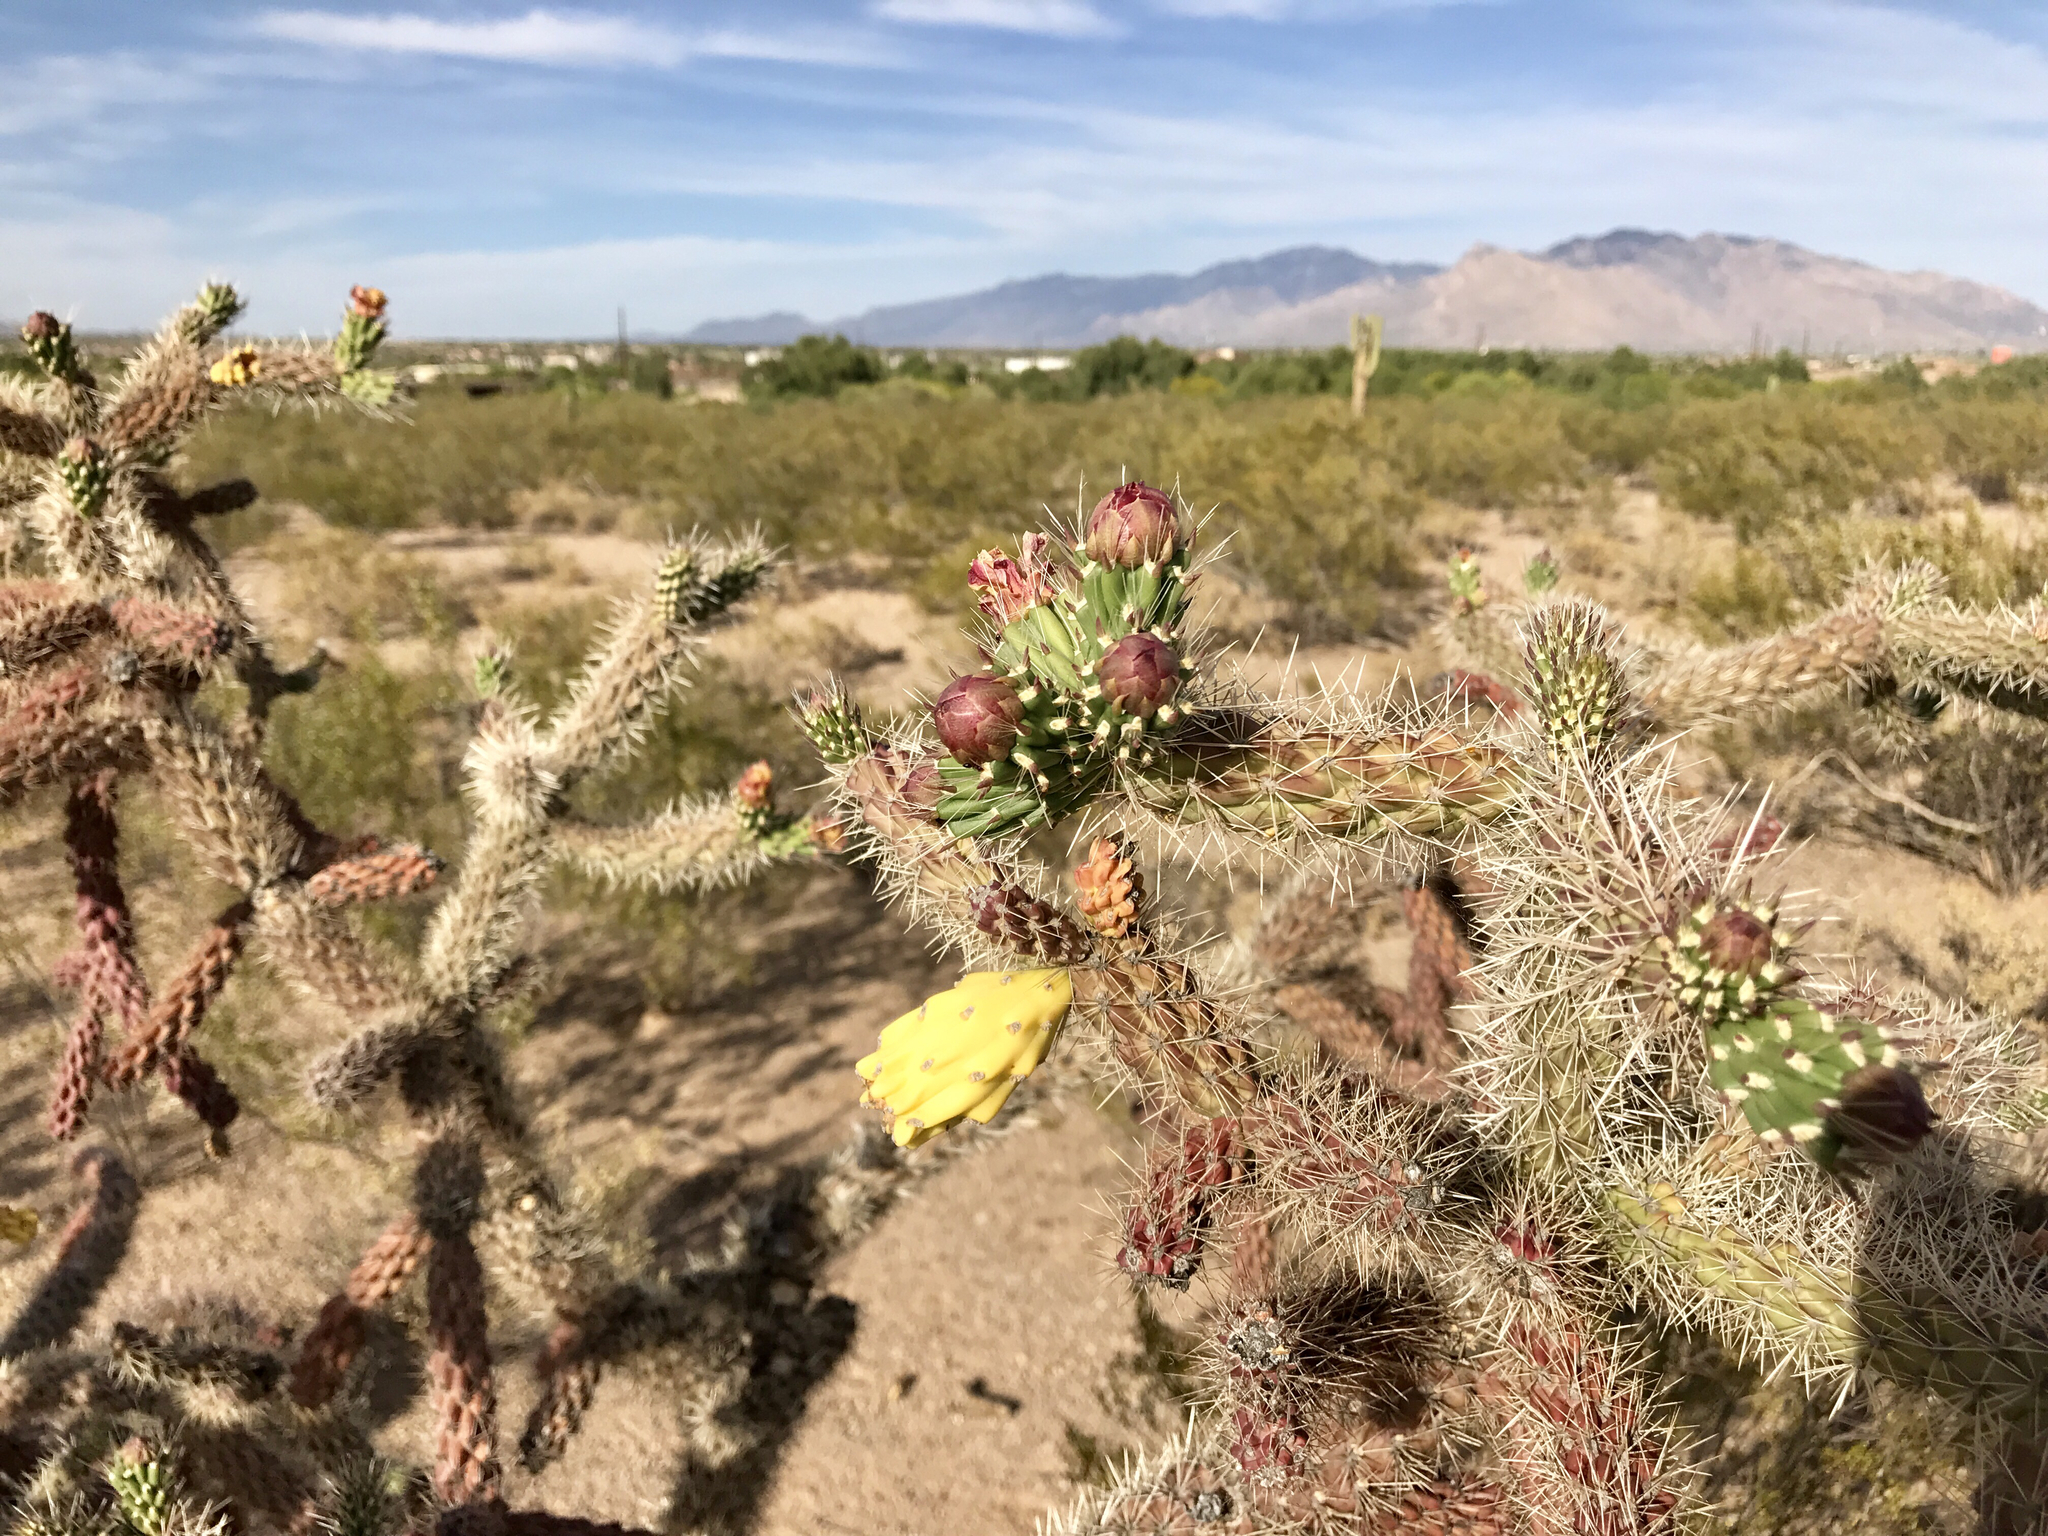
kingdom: Plantae
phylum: Tracheophyta
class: Magnoliopsida
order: Caryophyllales
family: Cactaceae
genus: Cylindropuntia
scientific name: Cylindropuntia thurberi
